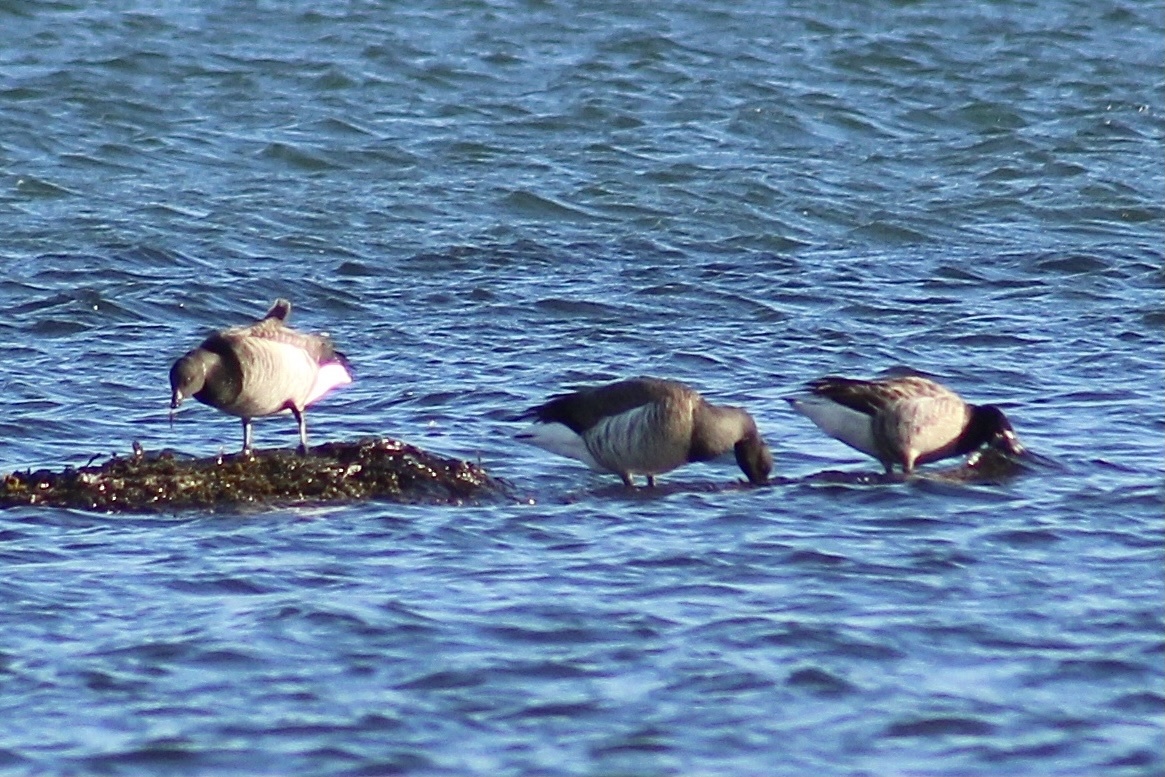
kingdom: Animalia
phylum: Chordata
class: Aves
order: Anseriformes
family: Anatidae
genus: Branta
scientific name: Branta bernicla
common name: Brant goose
